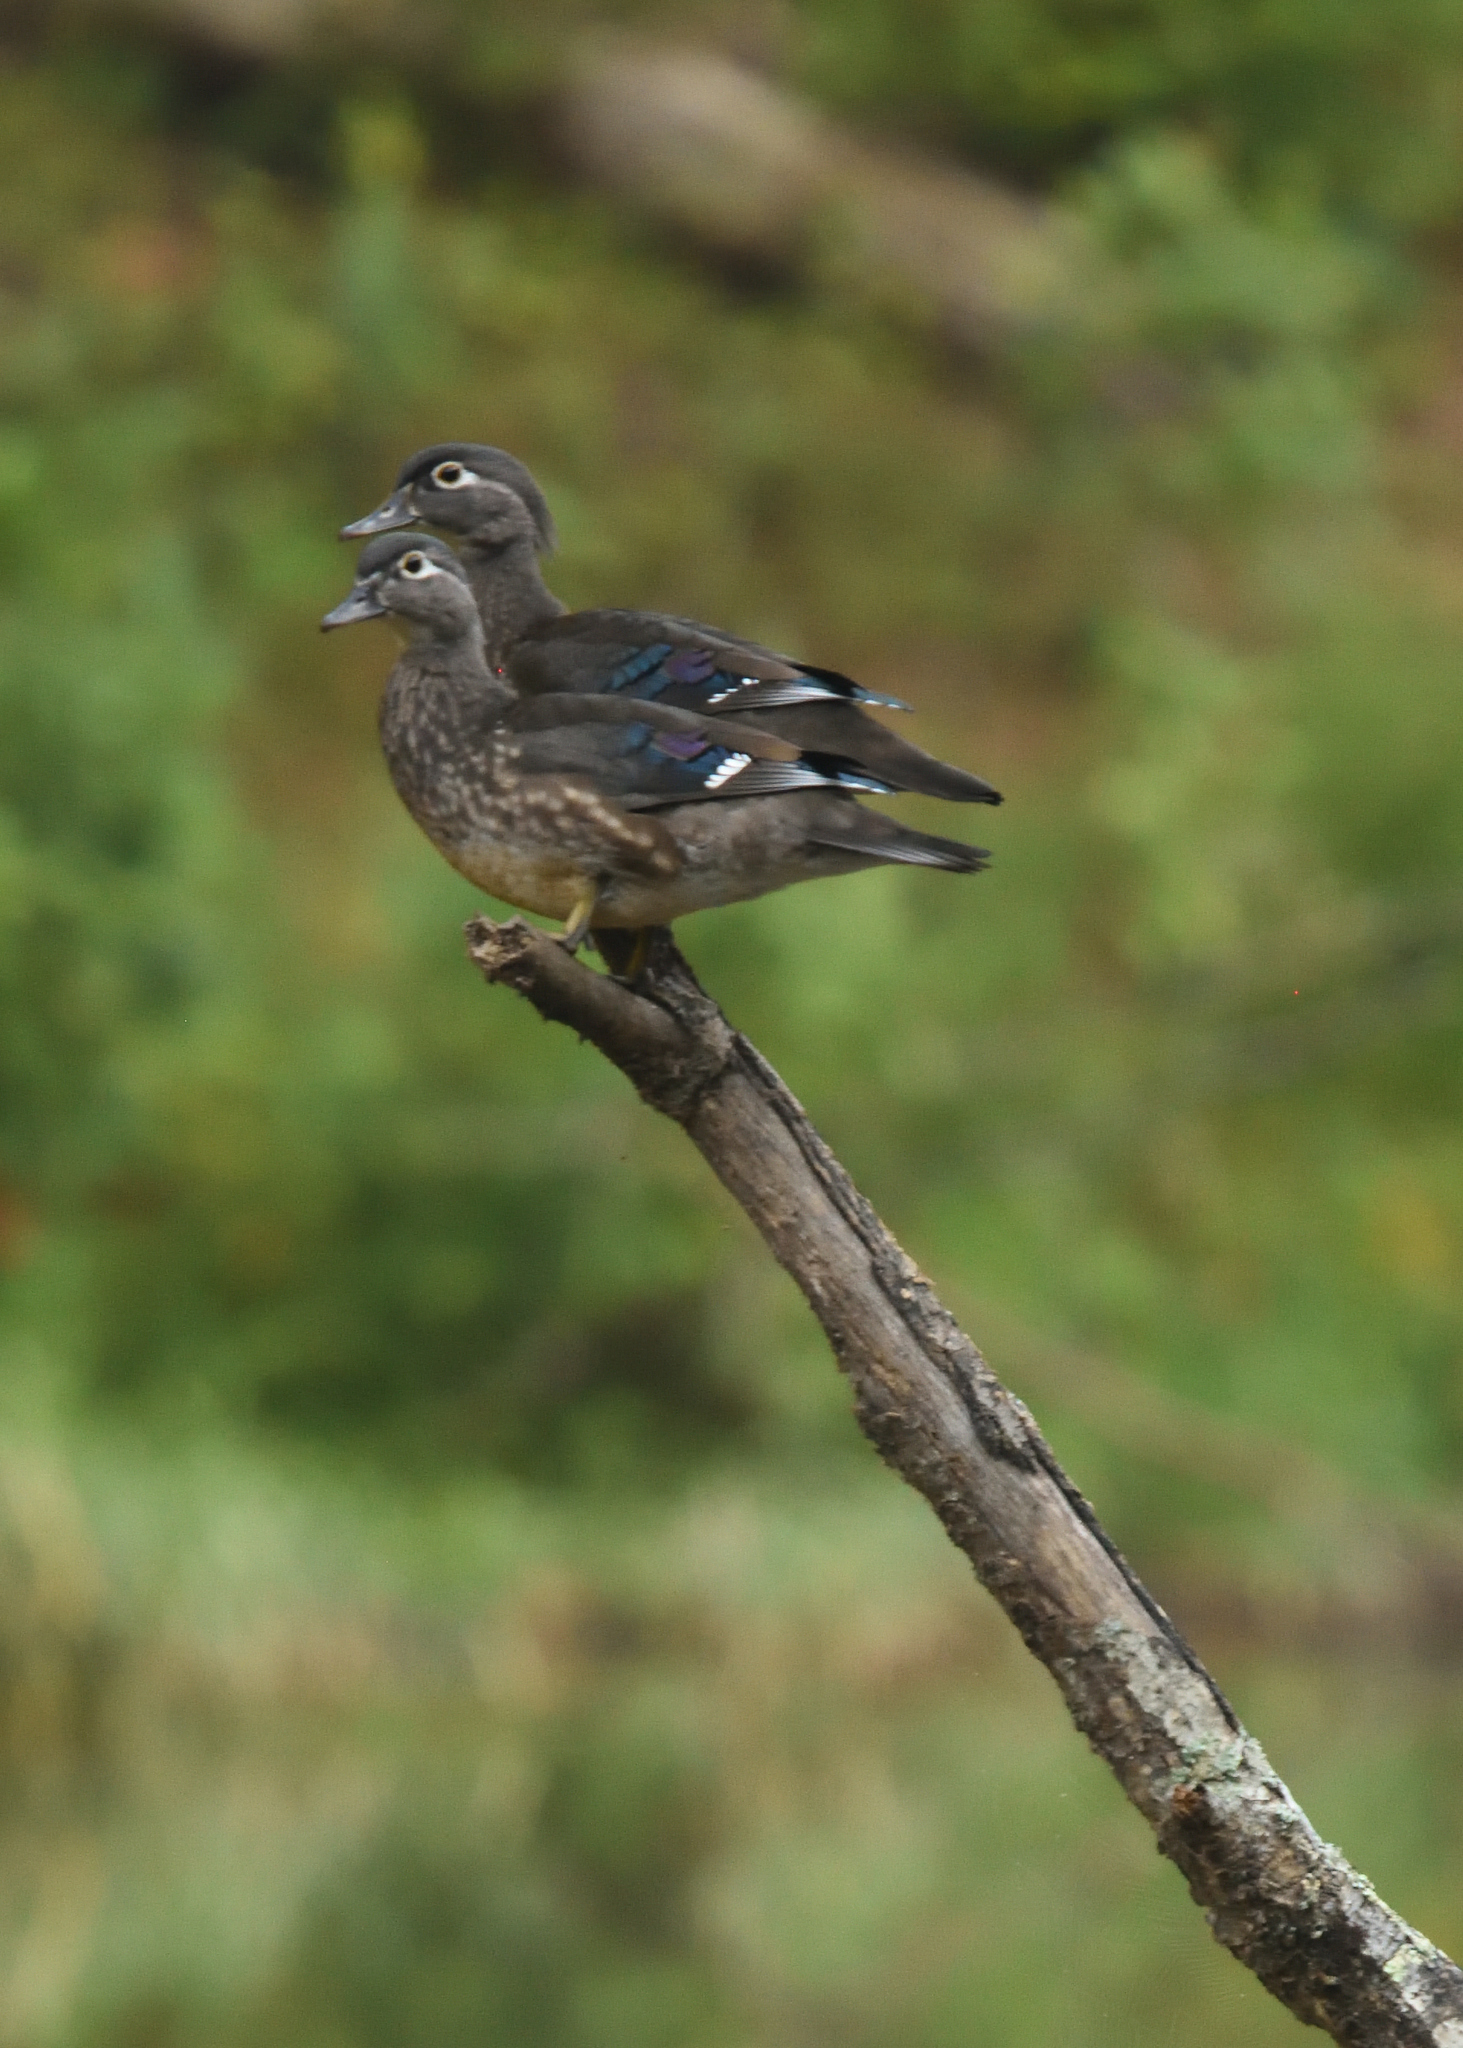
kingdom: Animalia
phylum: Chordata
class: Aves
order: Anseriformes
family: Anatidae
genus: Aix
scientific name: Aix sponsa
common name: Wood duck
